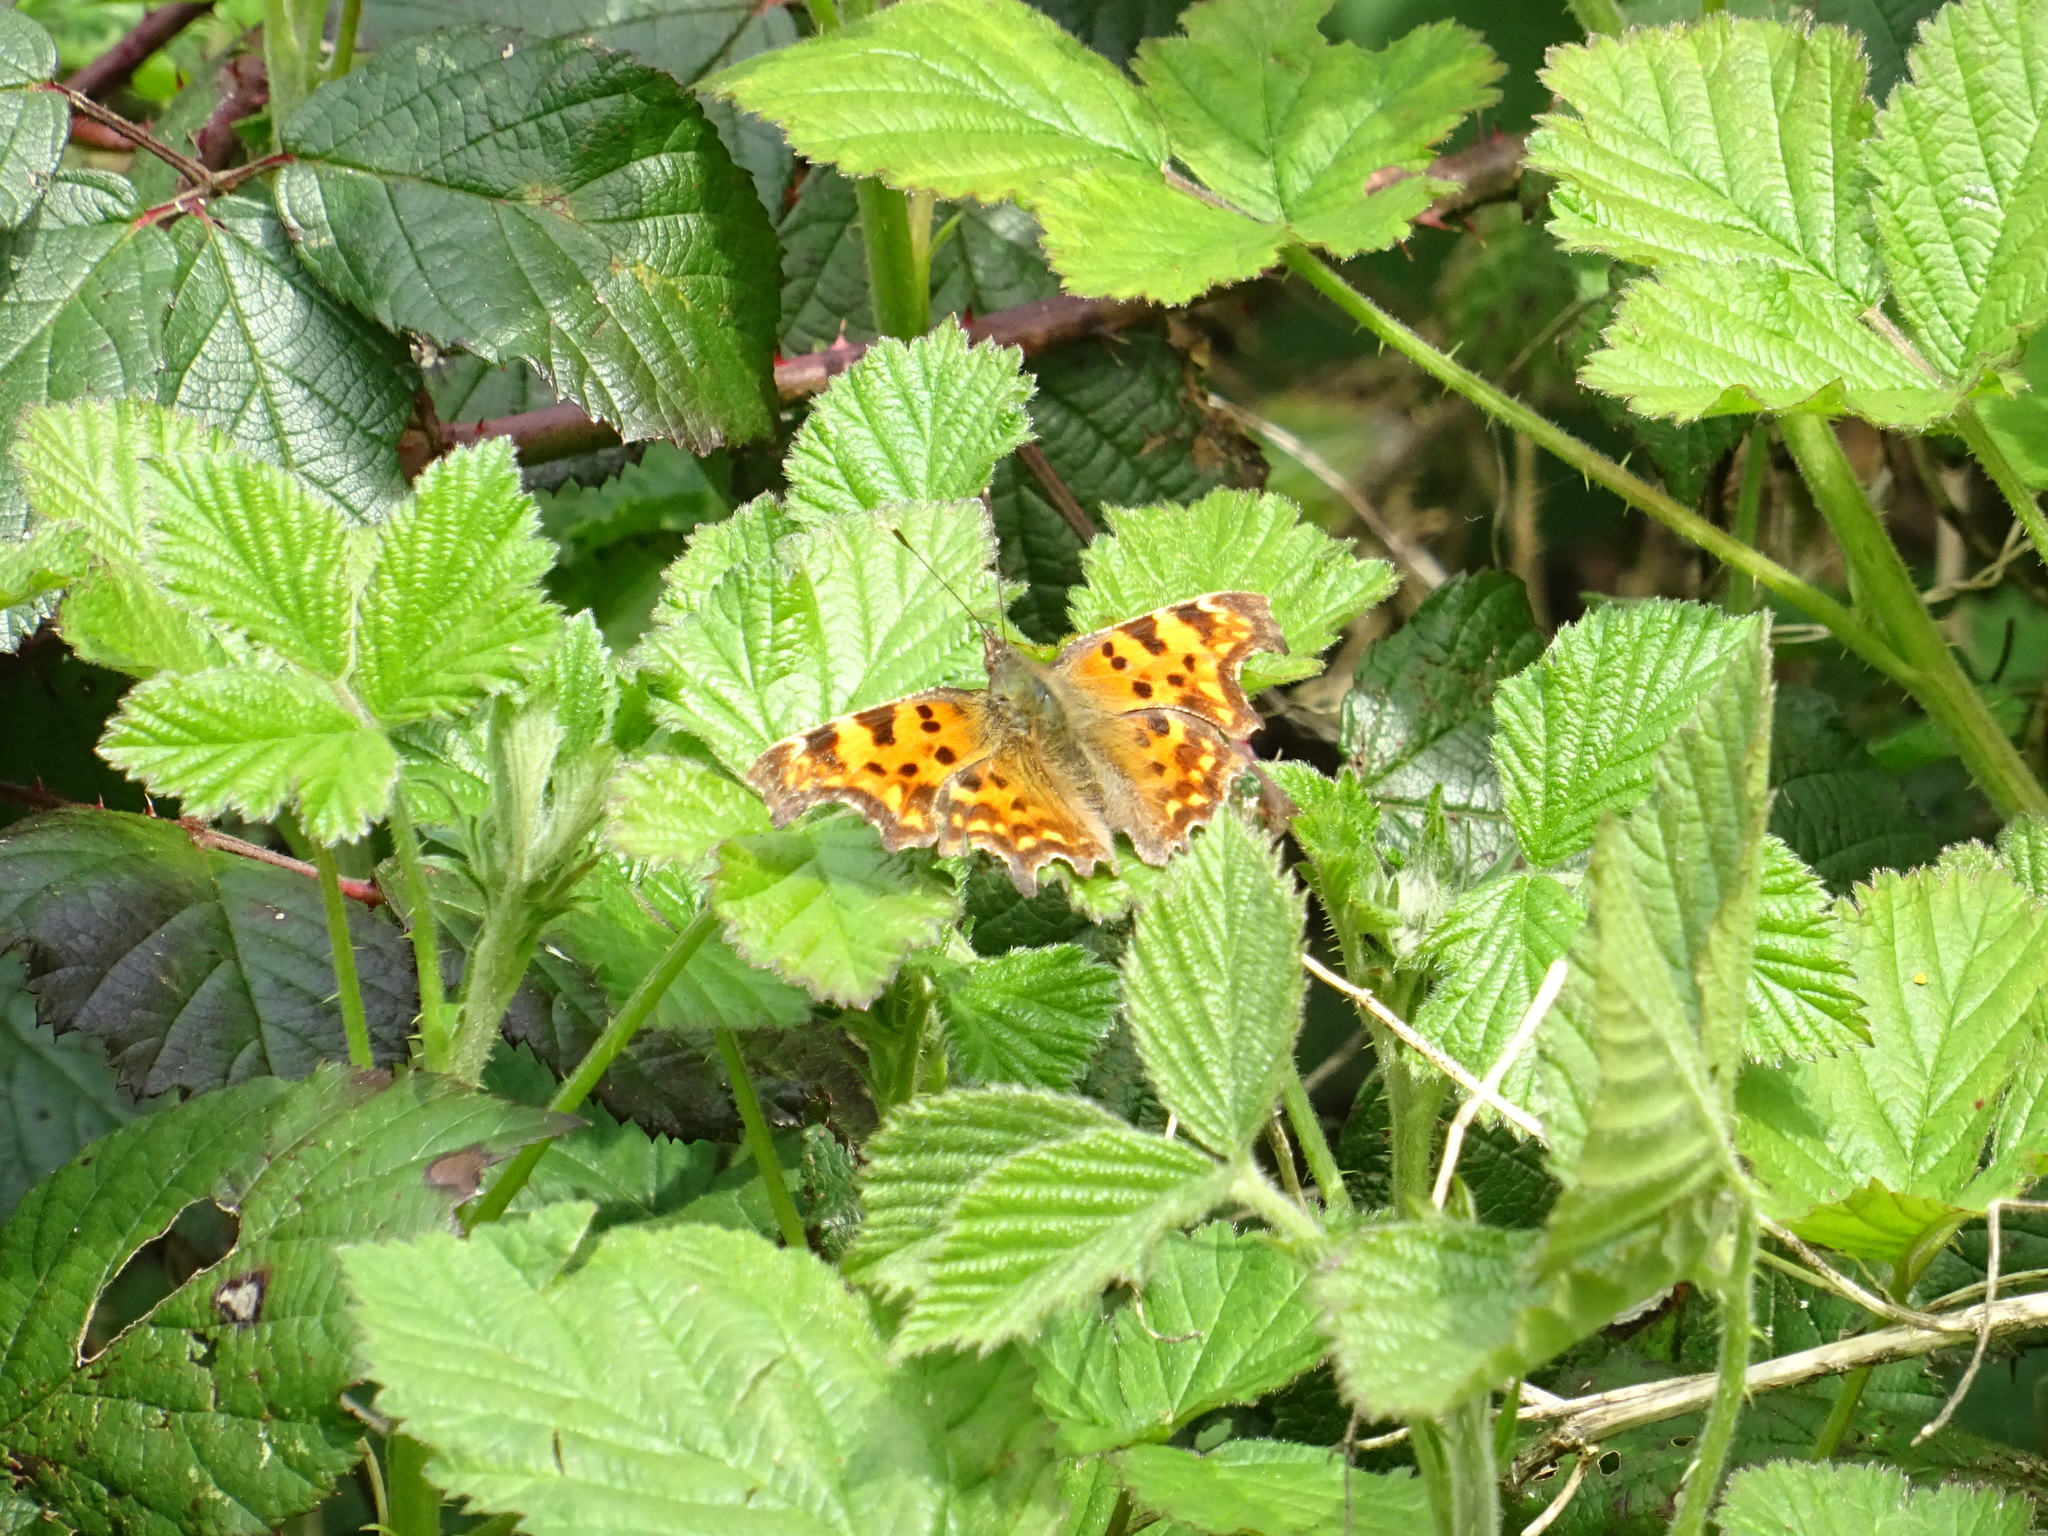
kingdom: Animalia
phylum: Arthropoda
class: Insecta
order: Lepidoptera
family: Nymphalidae
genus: Polygonia
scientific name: Polygonia c-album
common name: Comma
